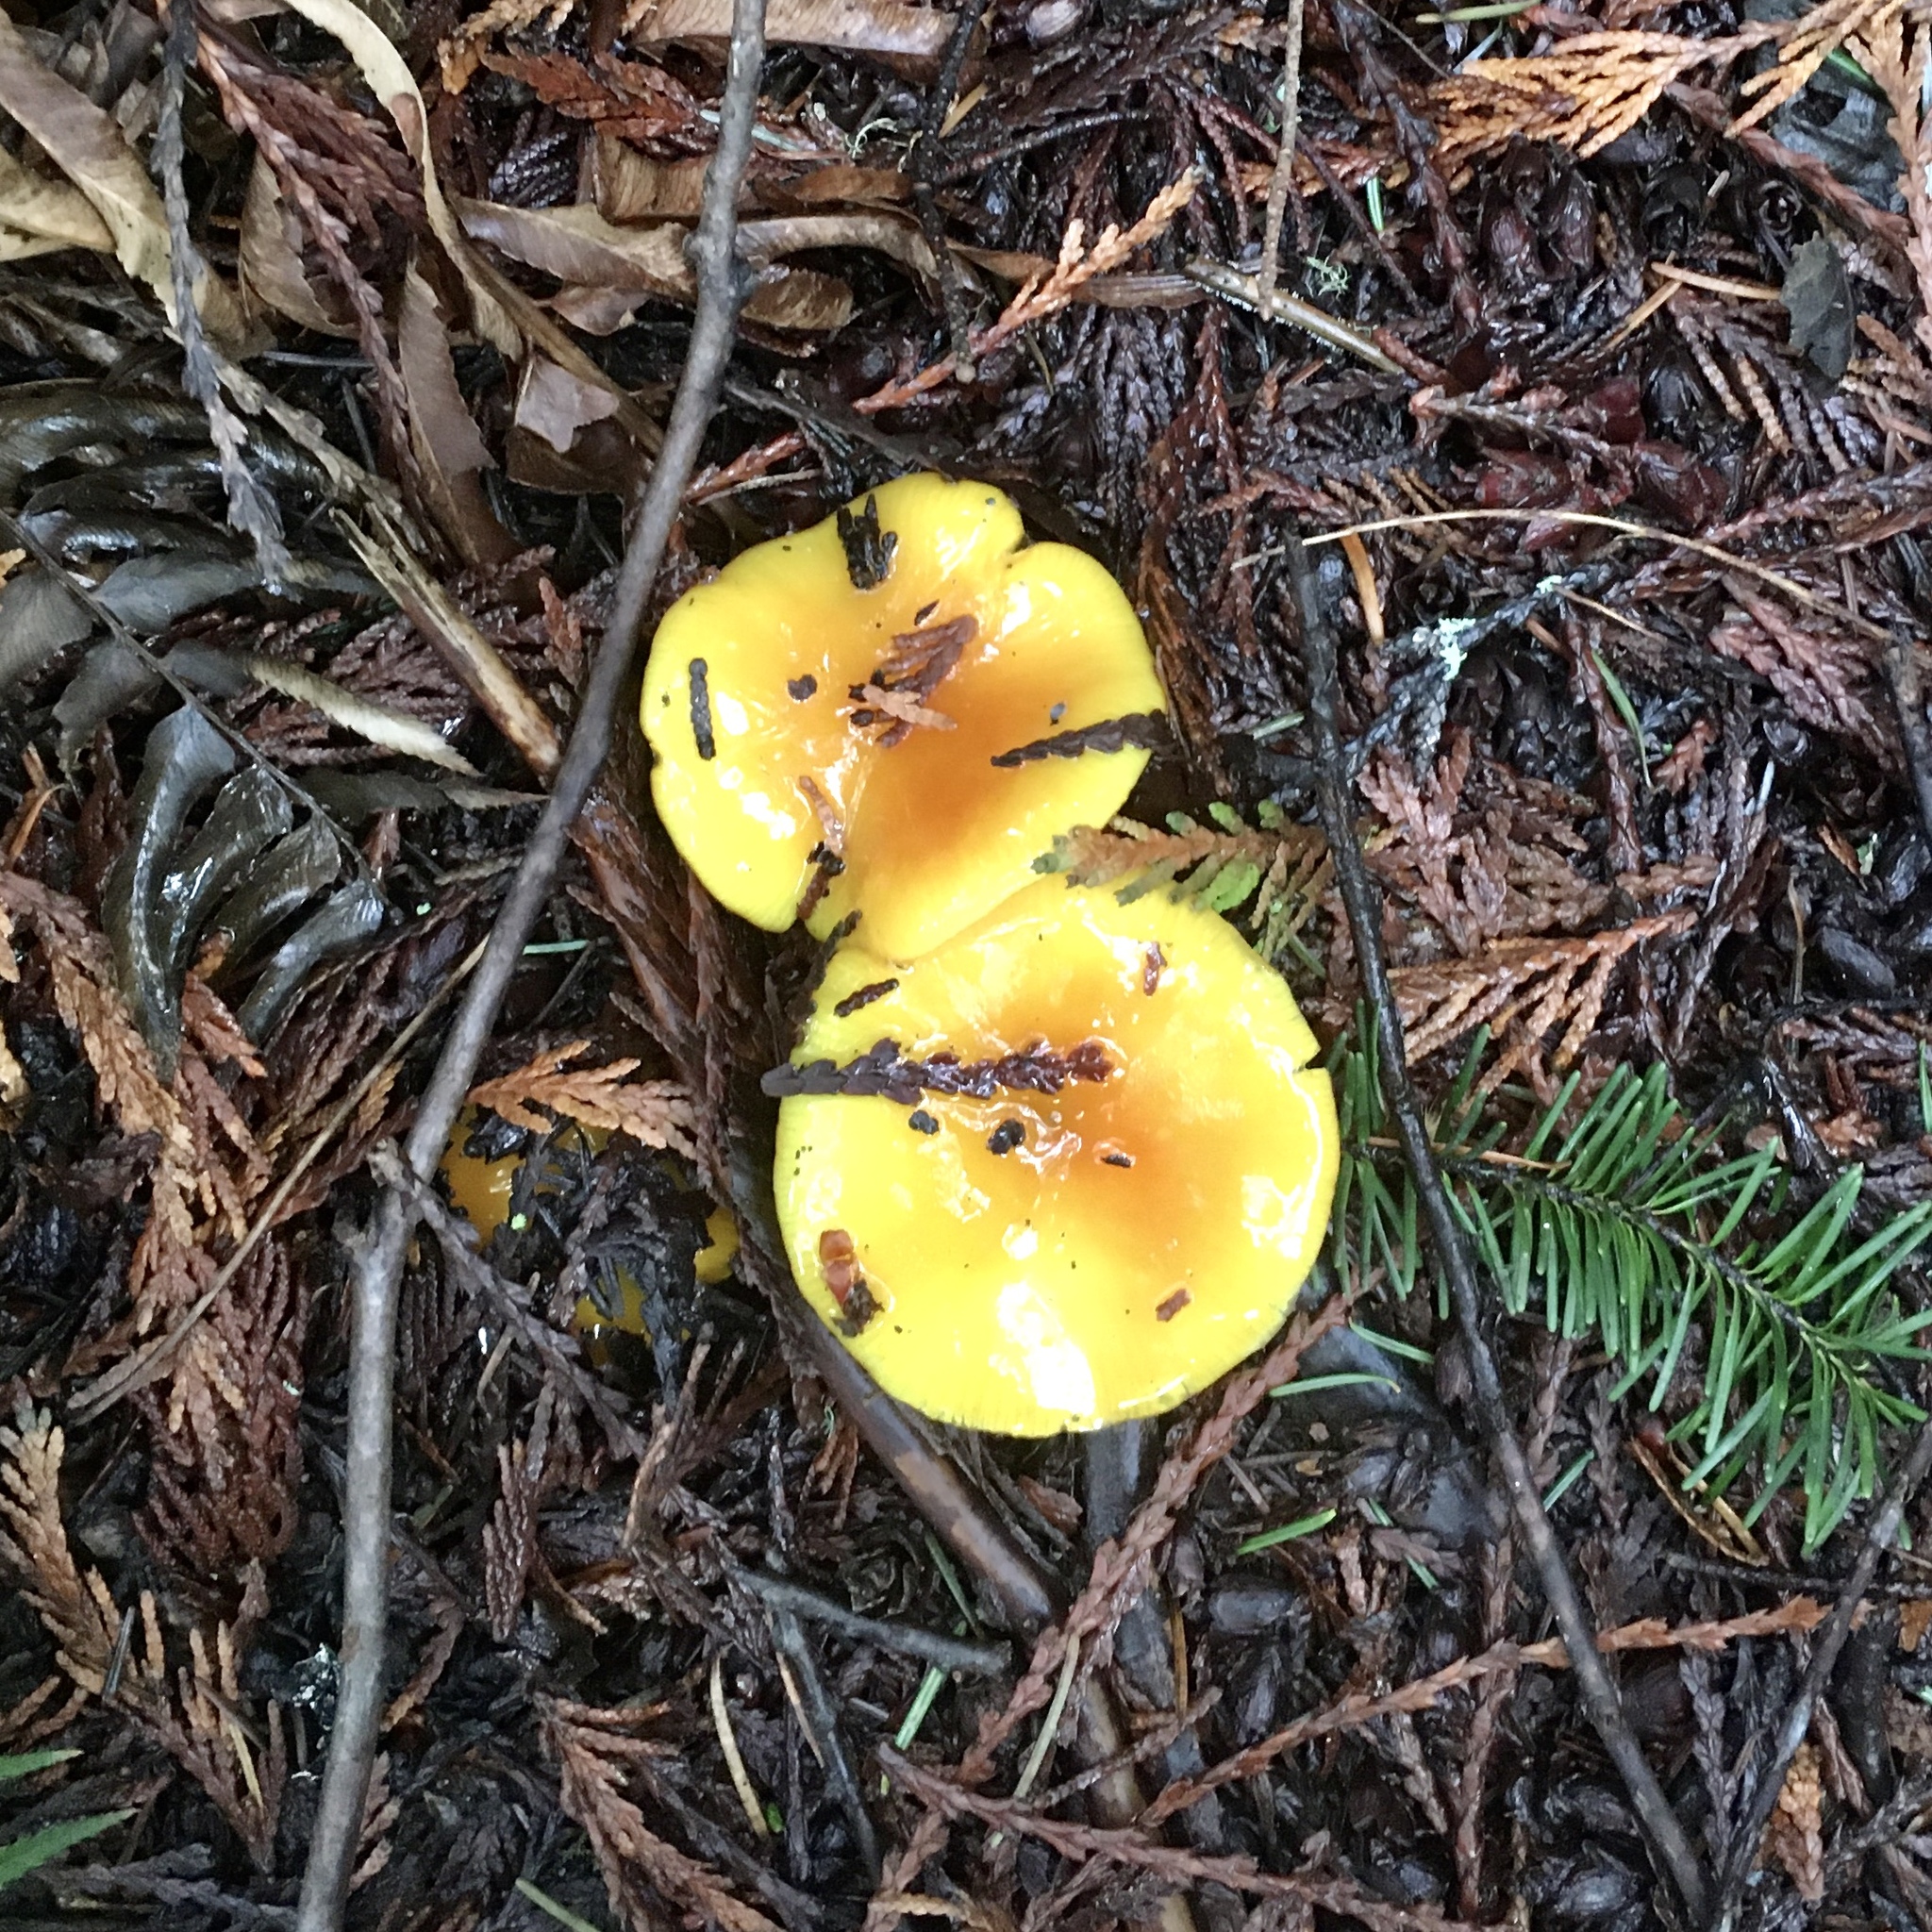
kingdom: Fungi
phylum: Basidiomycota
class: Agaricomycetes
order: Agaricales
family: Hygrophoraceae
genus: Hygrocybe
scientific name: Hygrocybe flavescens
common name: Golden waxy cap
